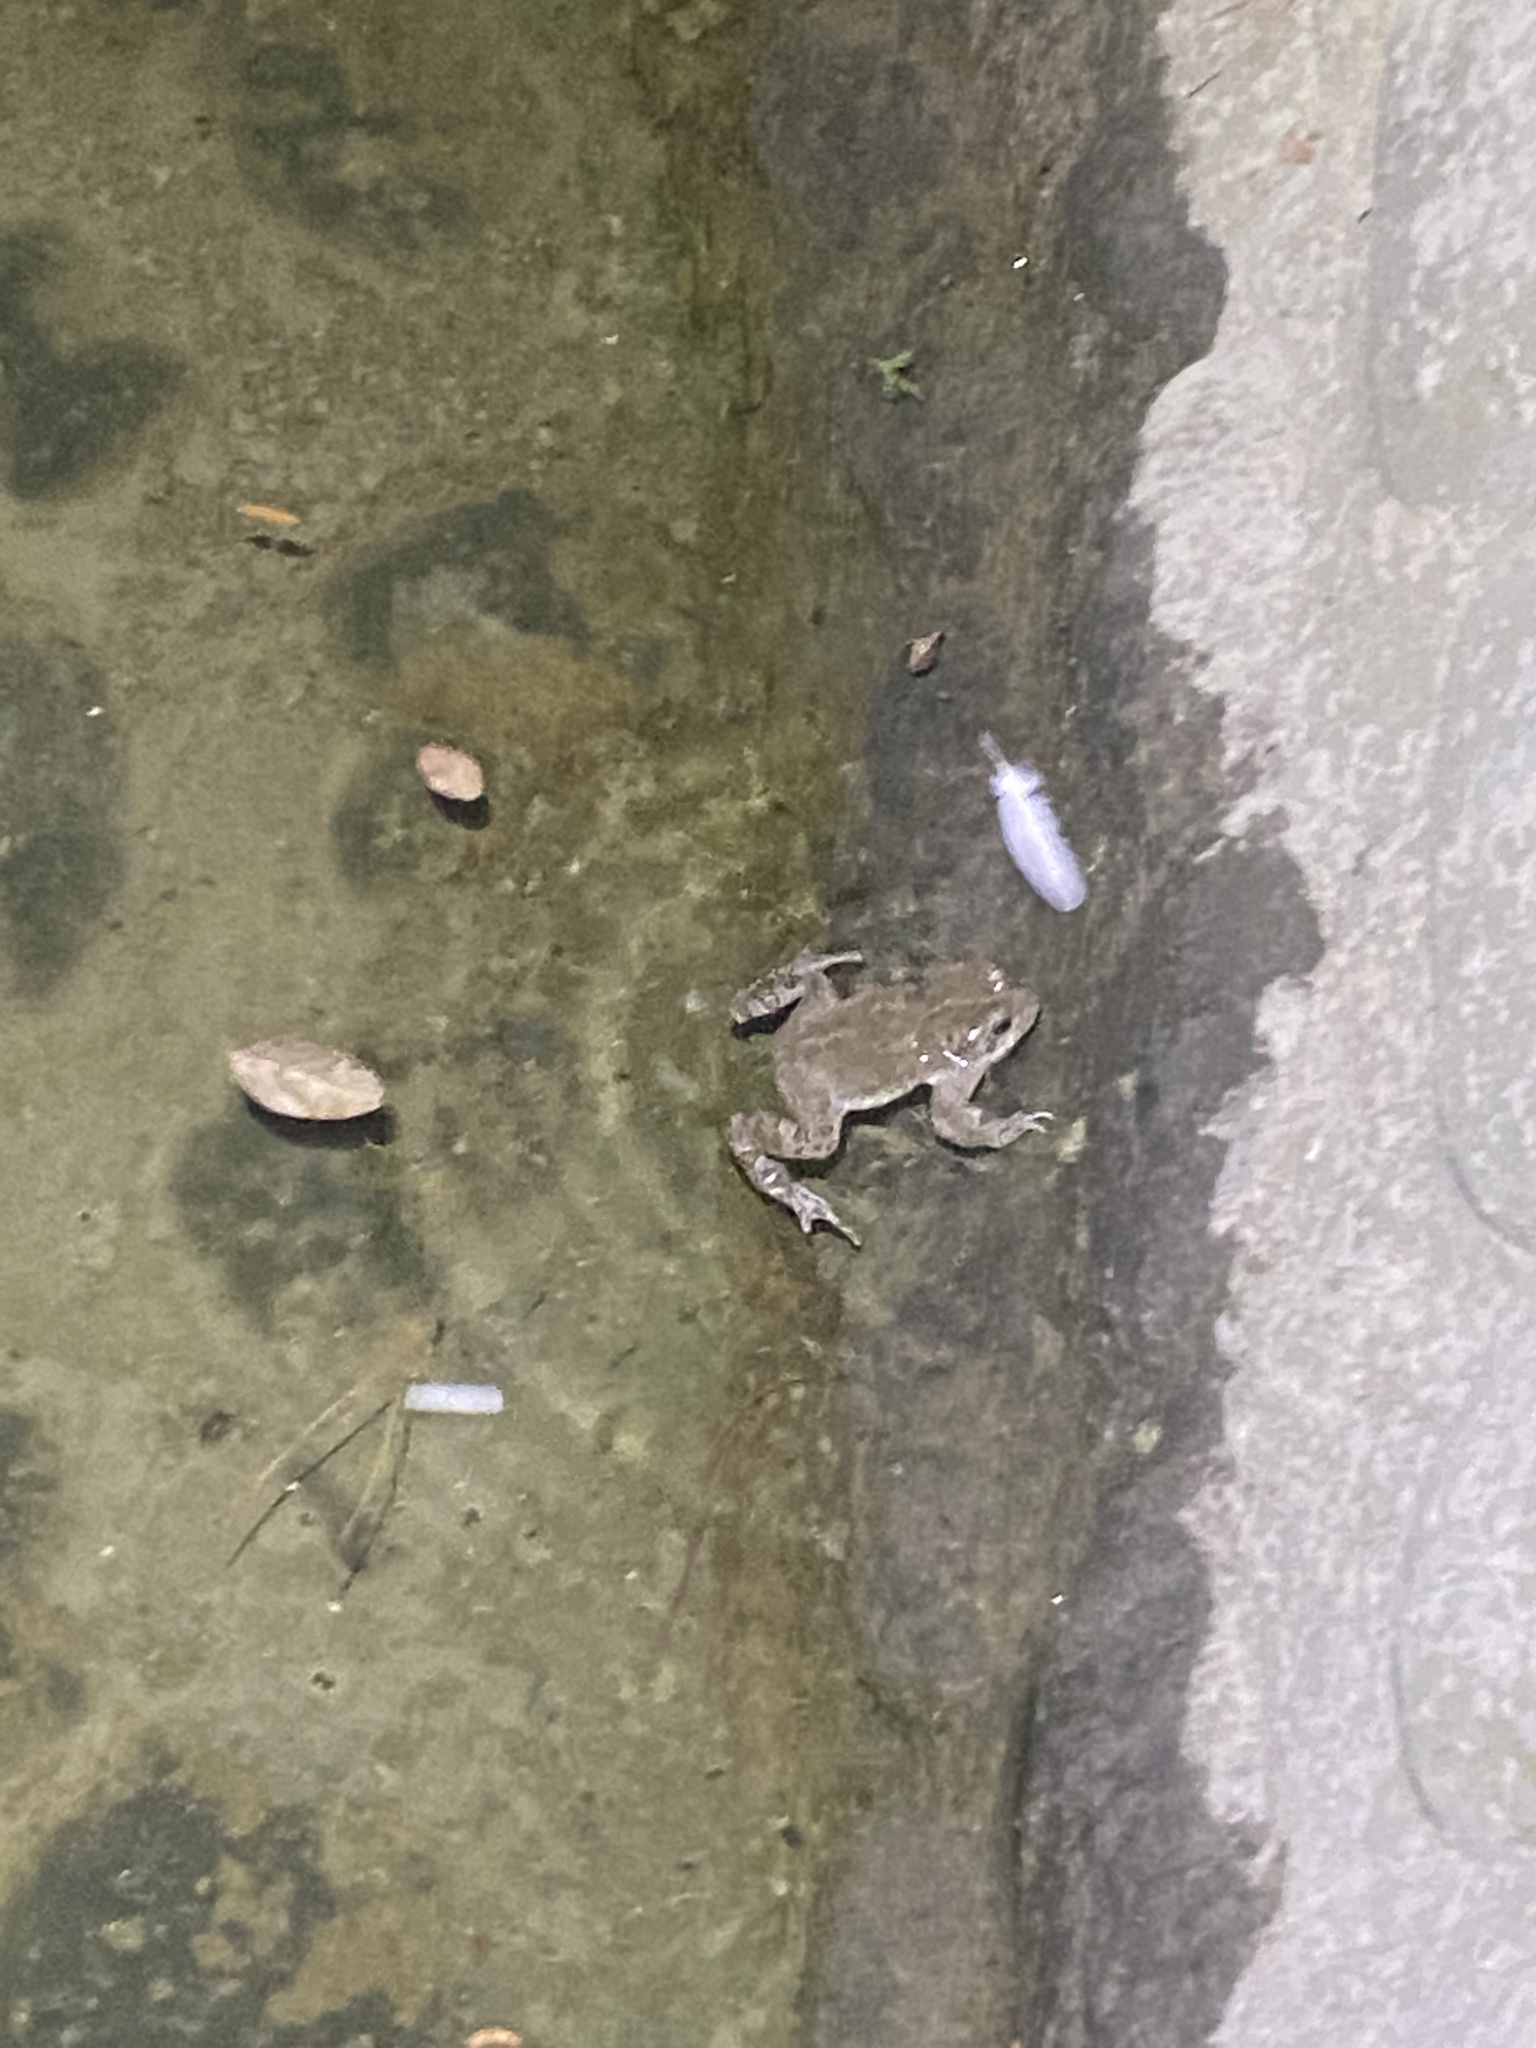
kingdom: Animalia
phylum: Chordata
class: Amphibia
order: Anura
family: Bufonidae
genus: Bufotes
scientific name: Bufotes viridis
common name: European green toad
